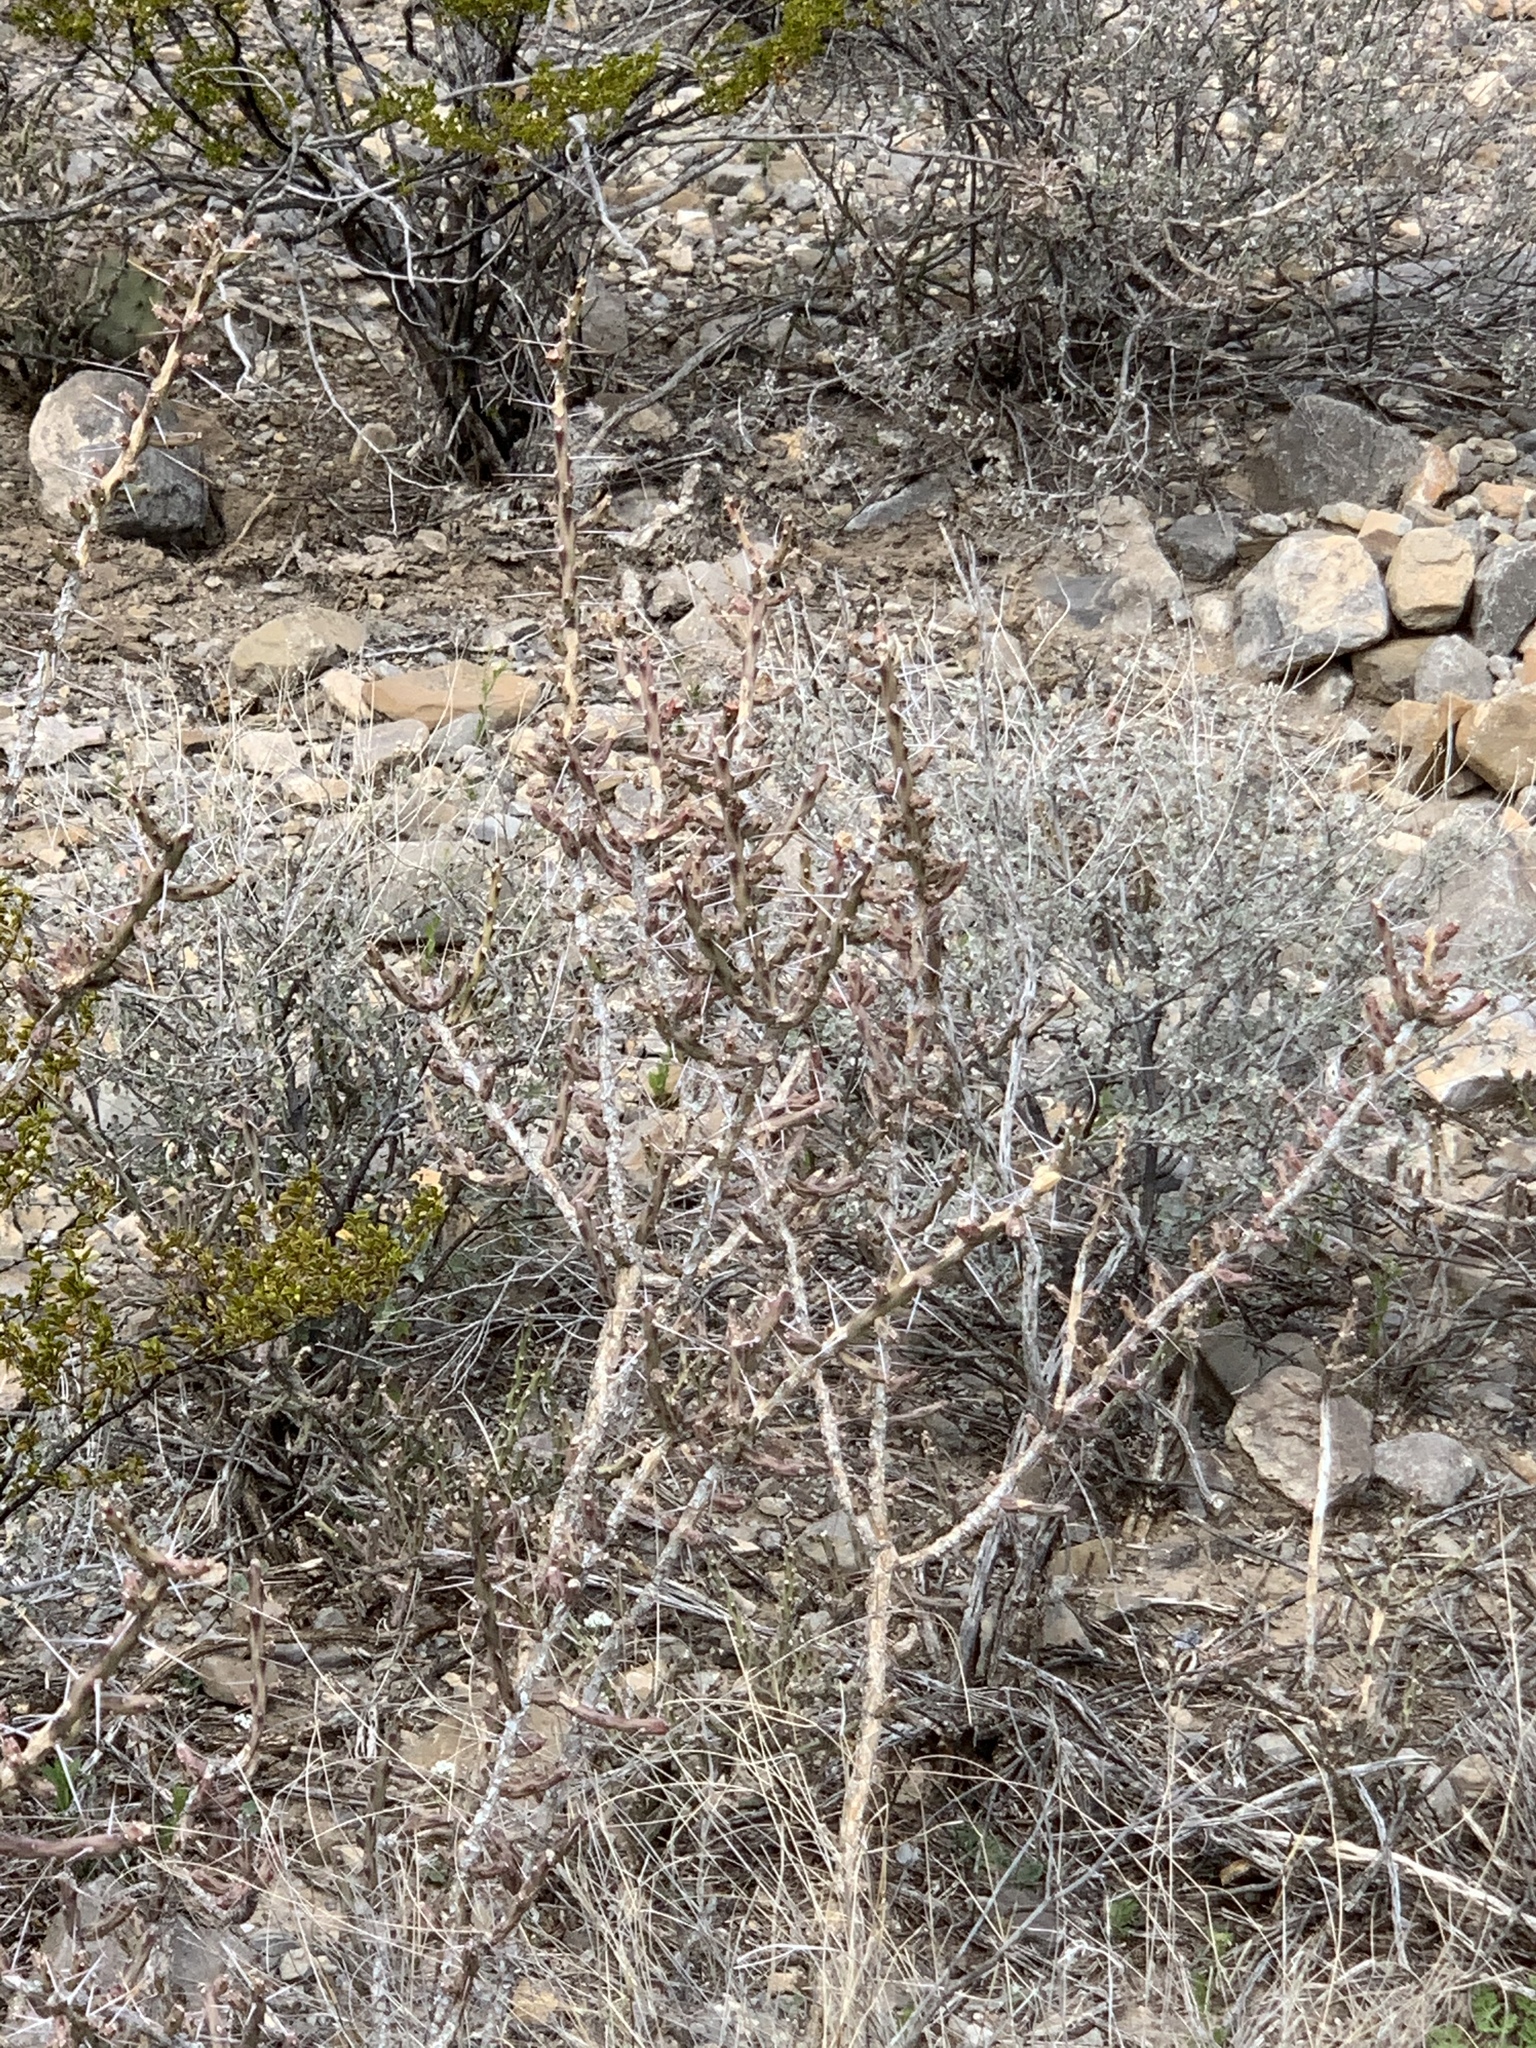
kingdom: Plantae
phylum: Tracheophyta
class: Magnoliopsida
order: Caryophyllales
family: Cactaceae
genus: Cylindropuntia
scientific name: Cylindropuntia leptocaulis
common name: Christmas cactus
